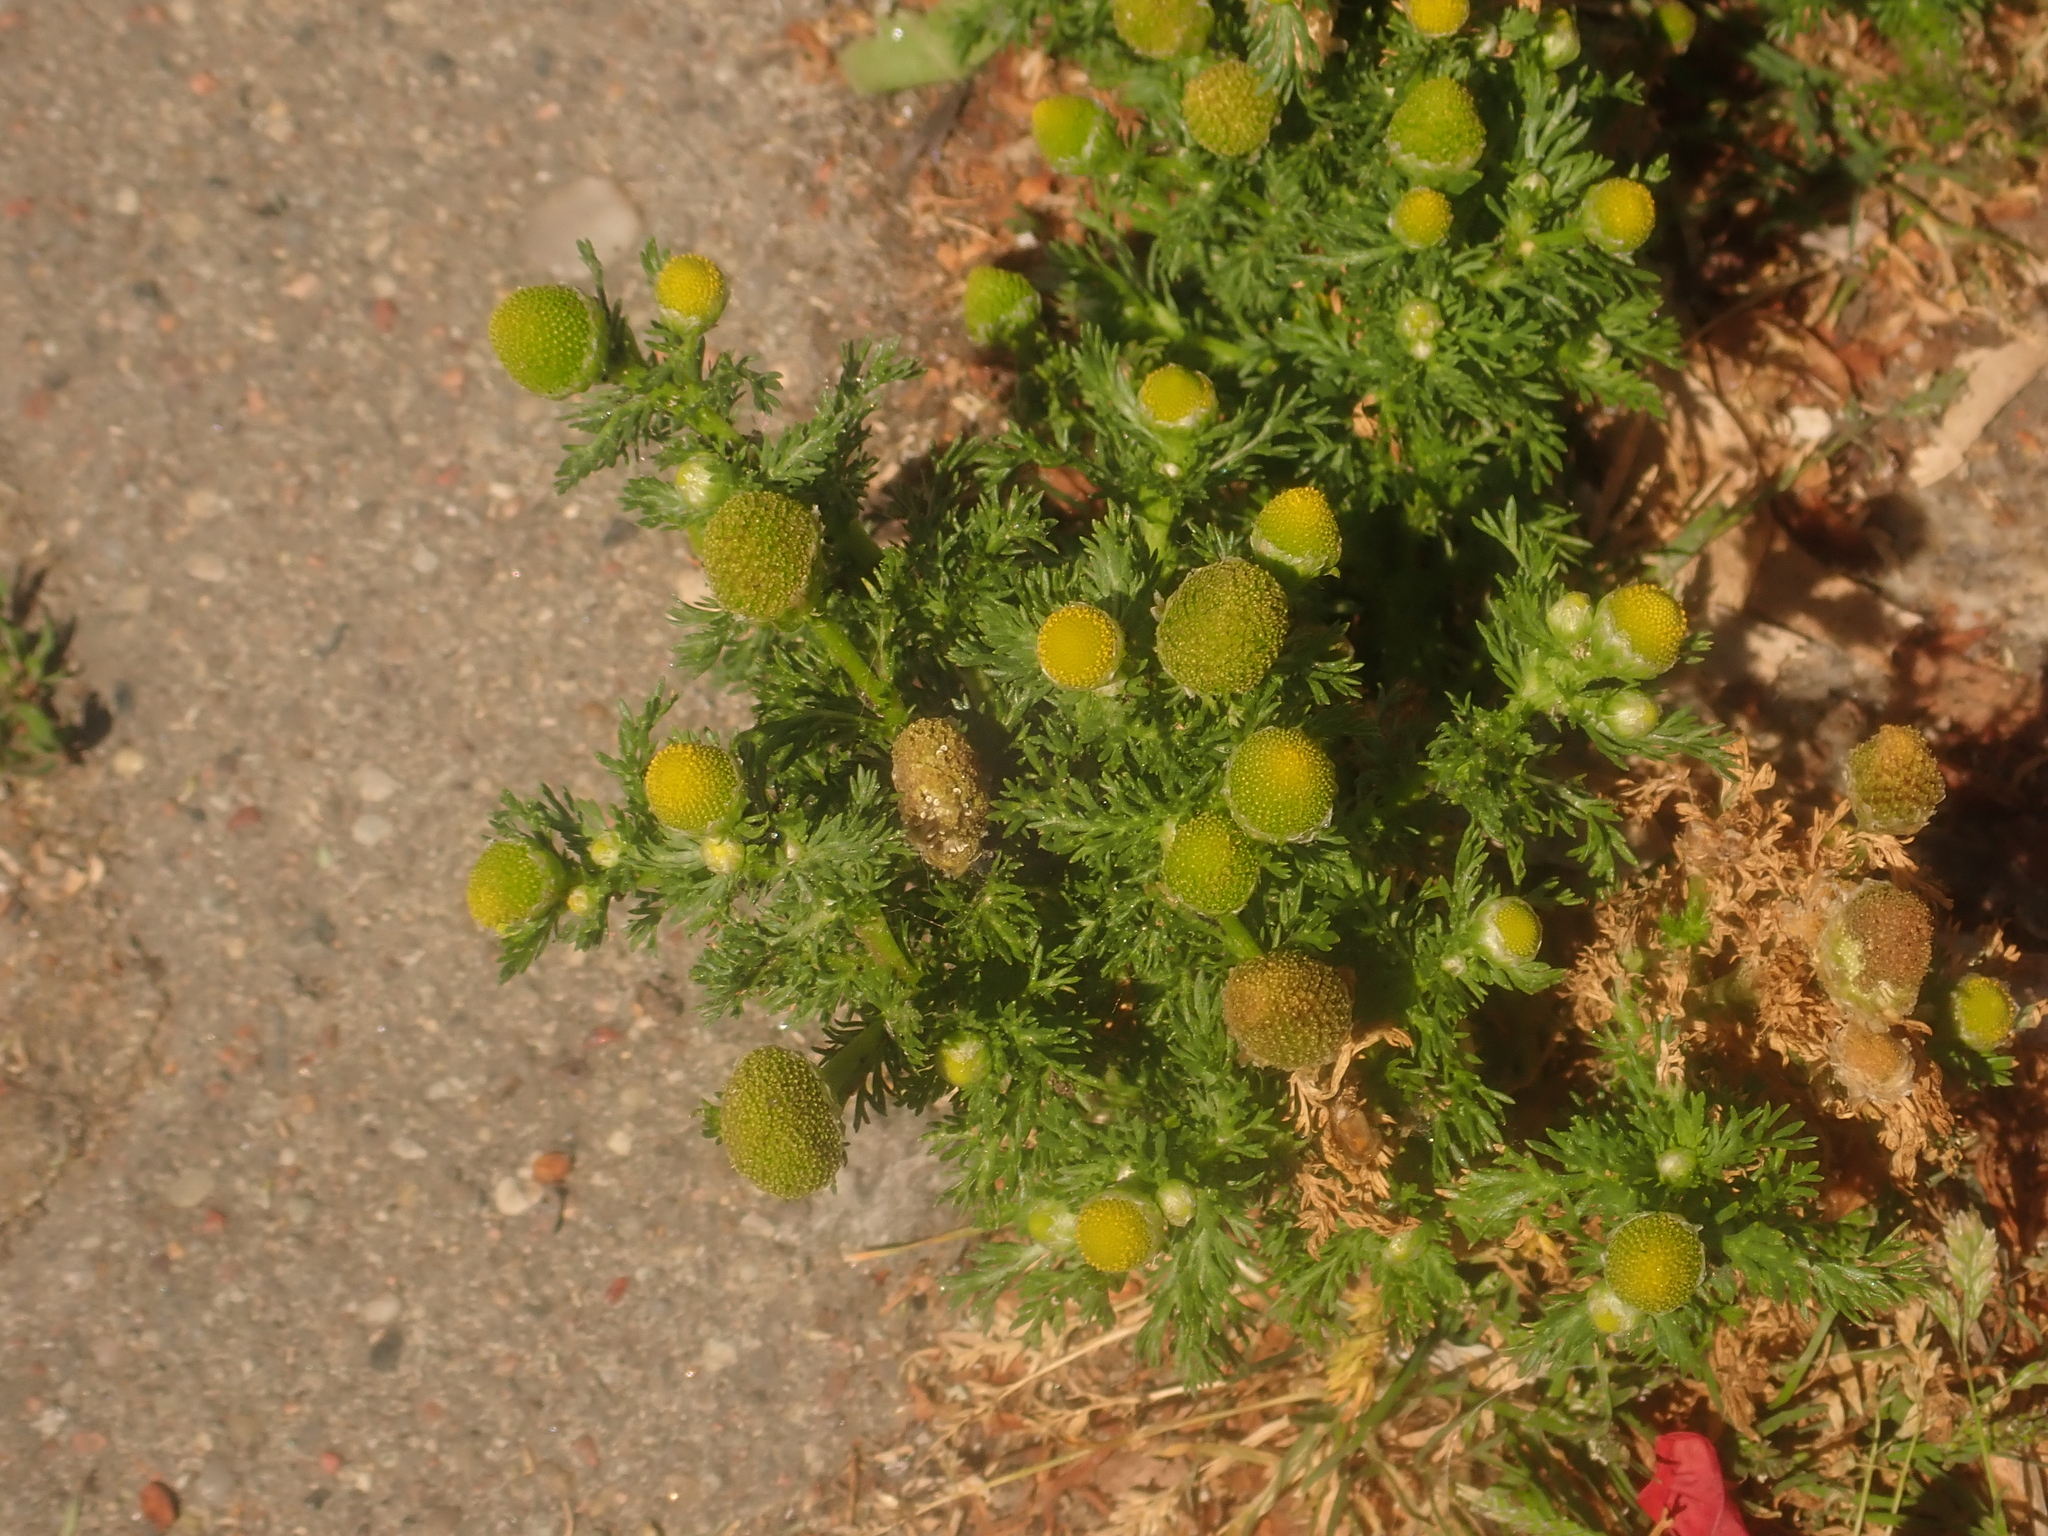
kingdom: Plantae
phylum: Tracheophyta
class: Magnoliopsida
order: Asterales
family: Asteraceae
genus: Matricaria
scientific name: Matricaria discoidea
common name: Disc mayweed
